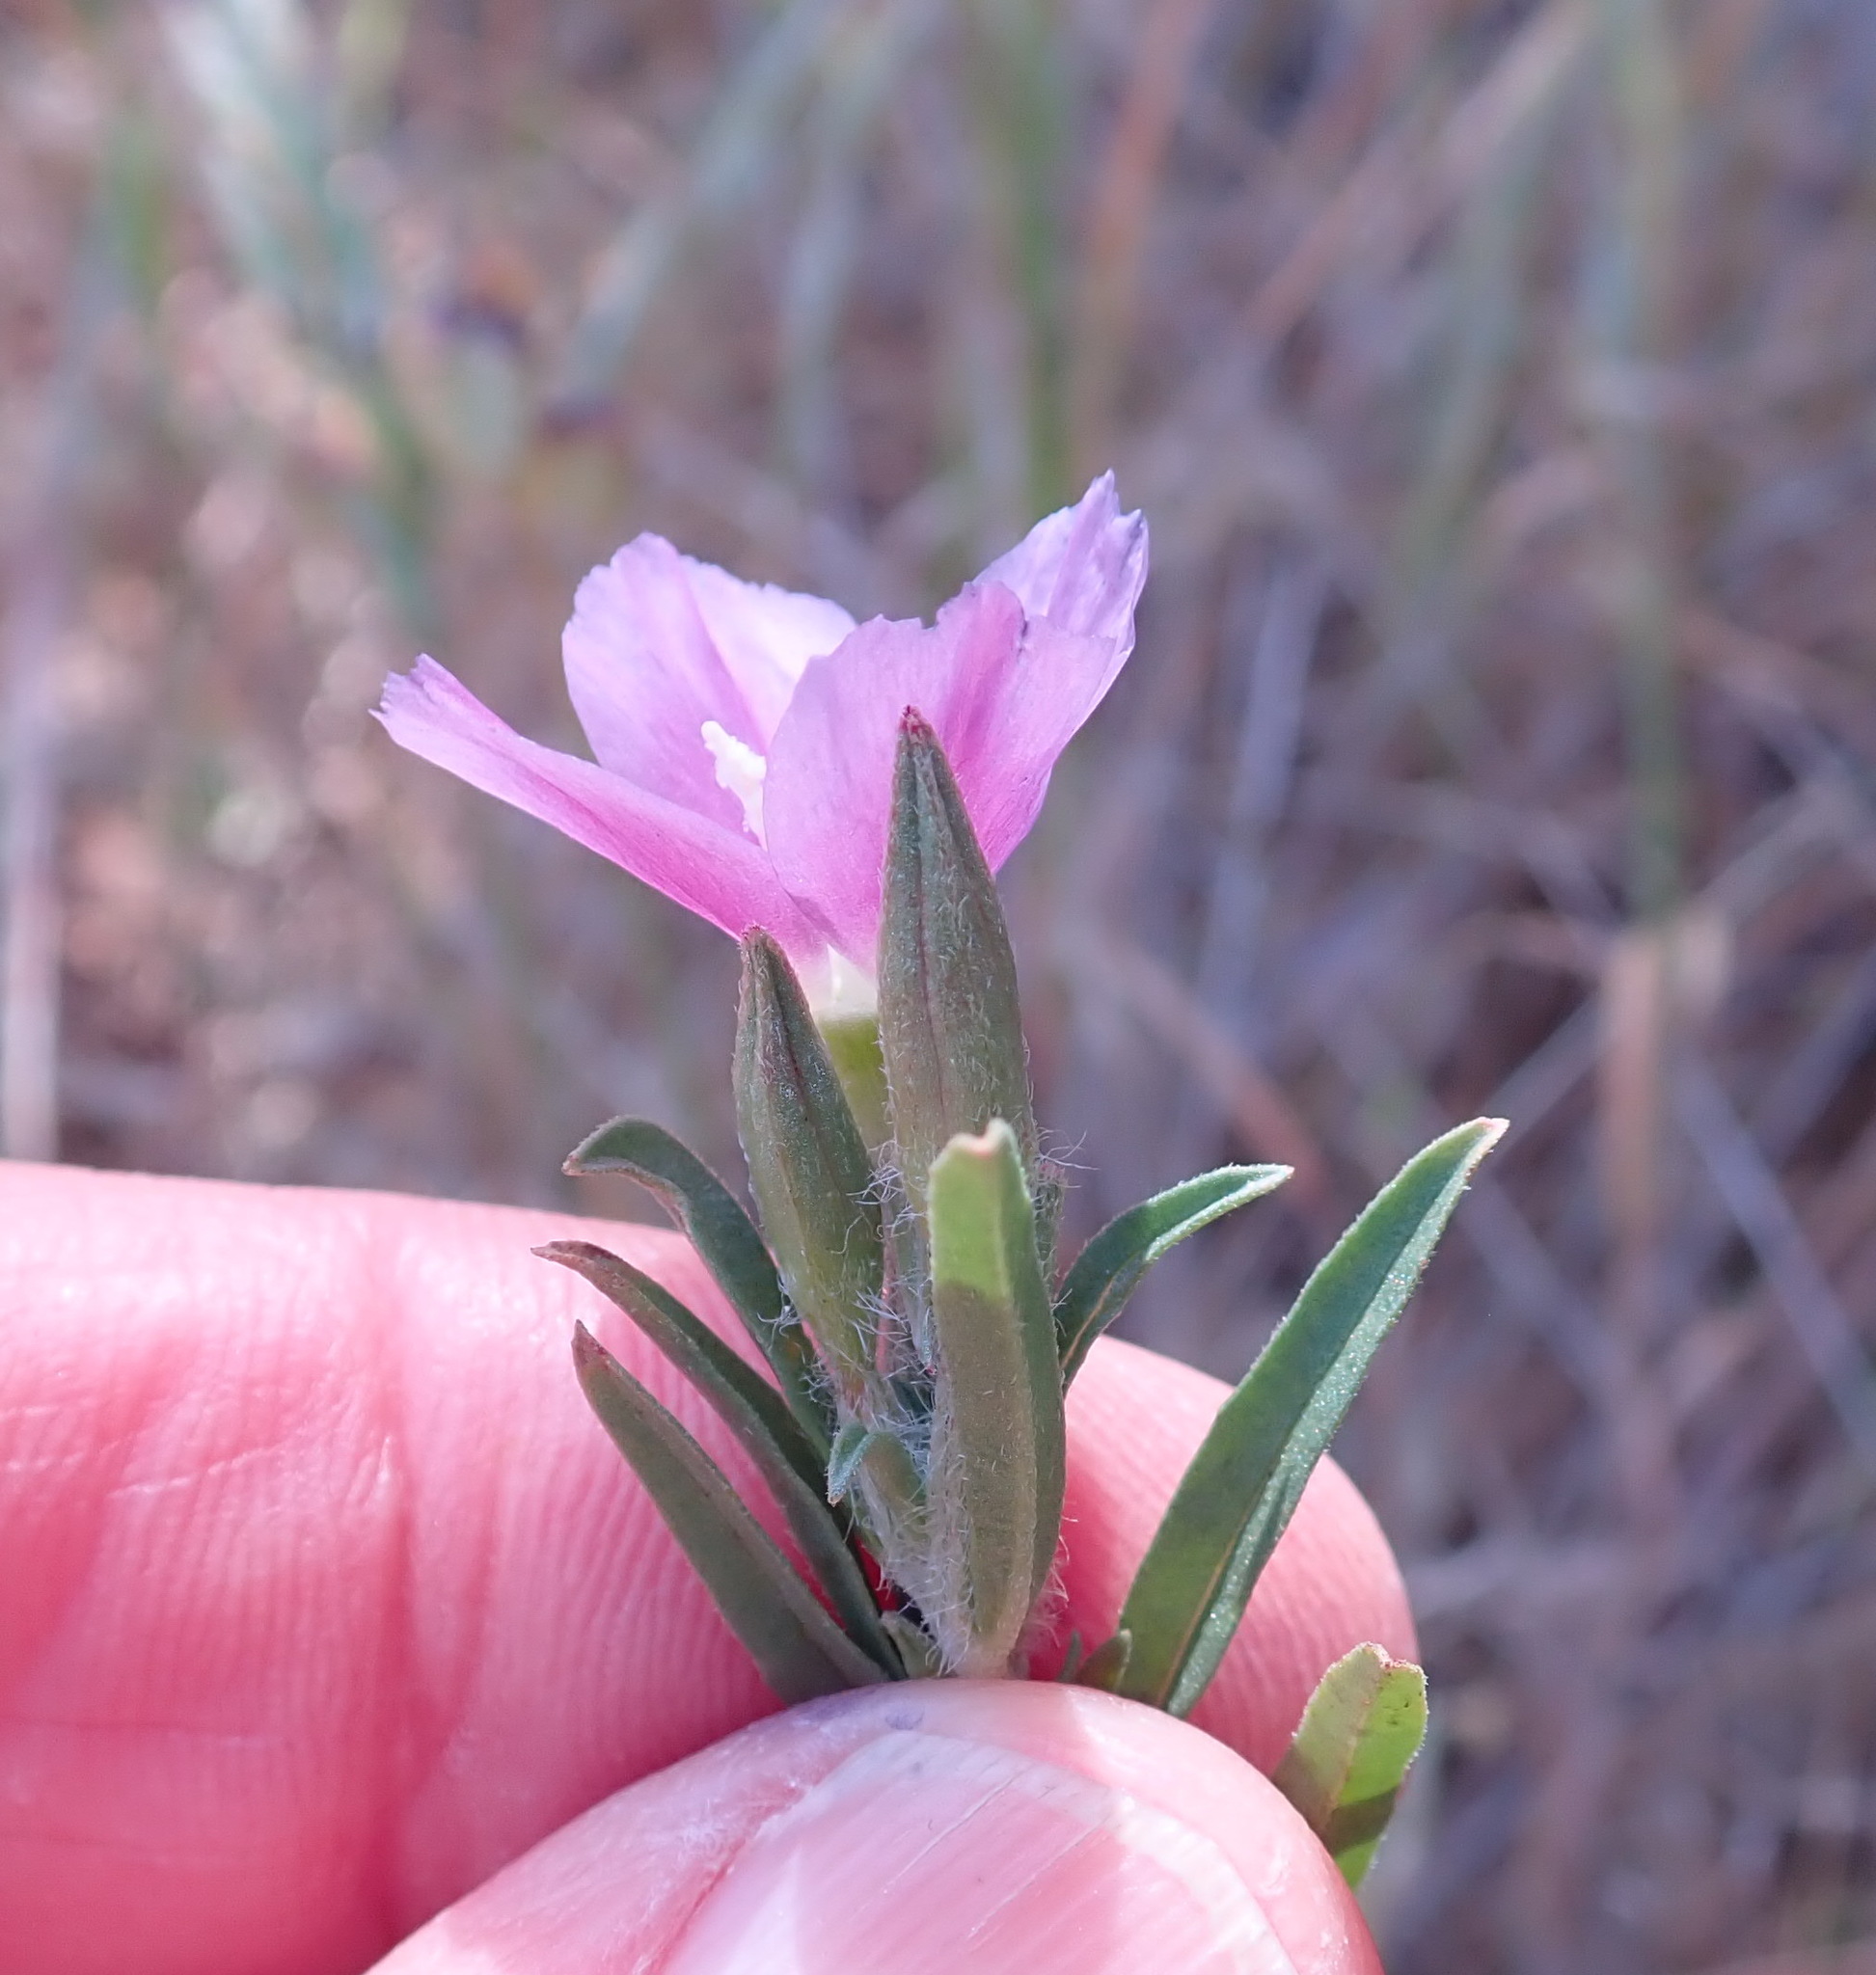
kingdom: Plantae
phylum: Tracheophyta
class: Magnoliopsida
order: Myrtales
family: Onagraceae
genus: Clarkia
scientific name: Clarkia purpurea
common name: Purple clarkia
